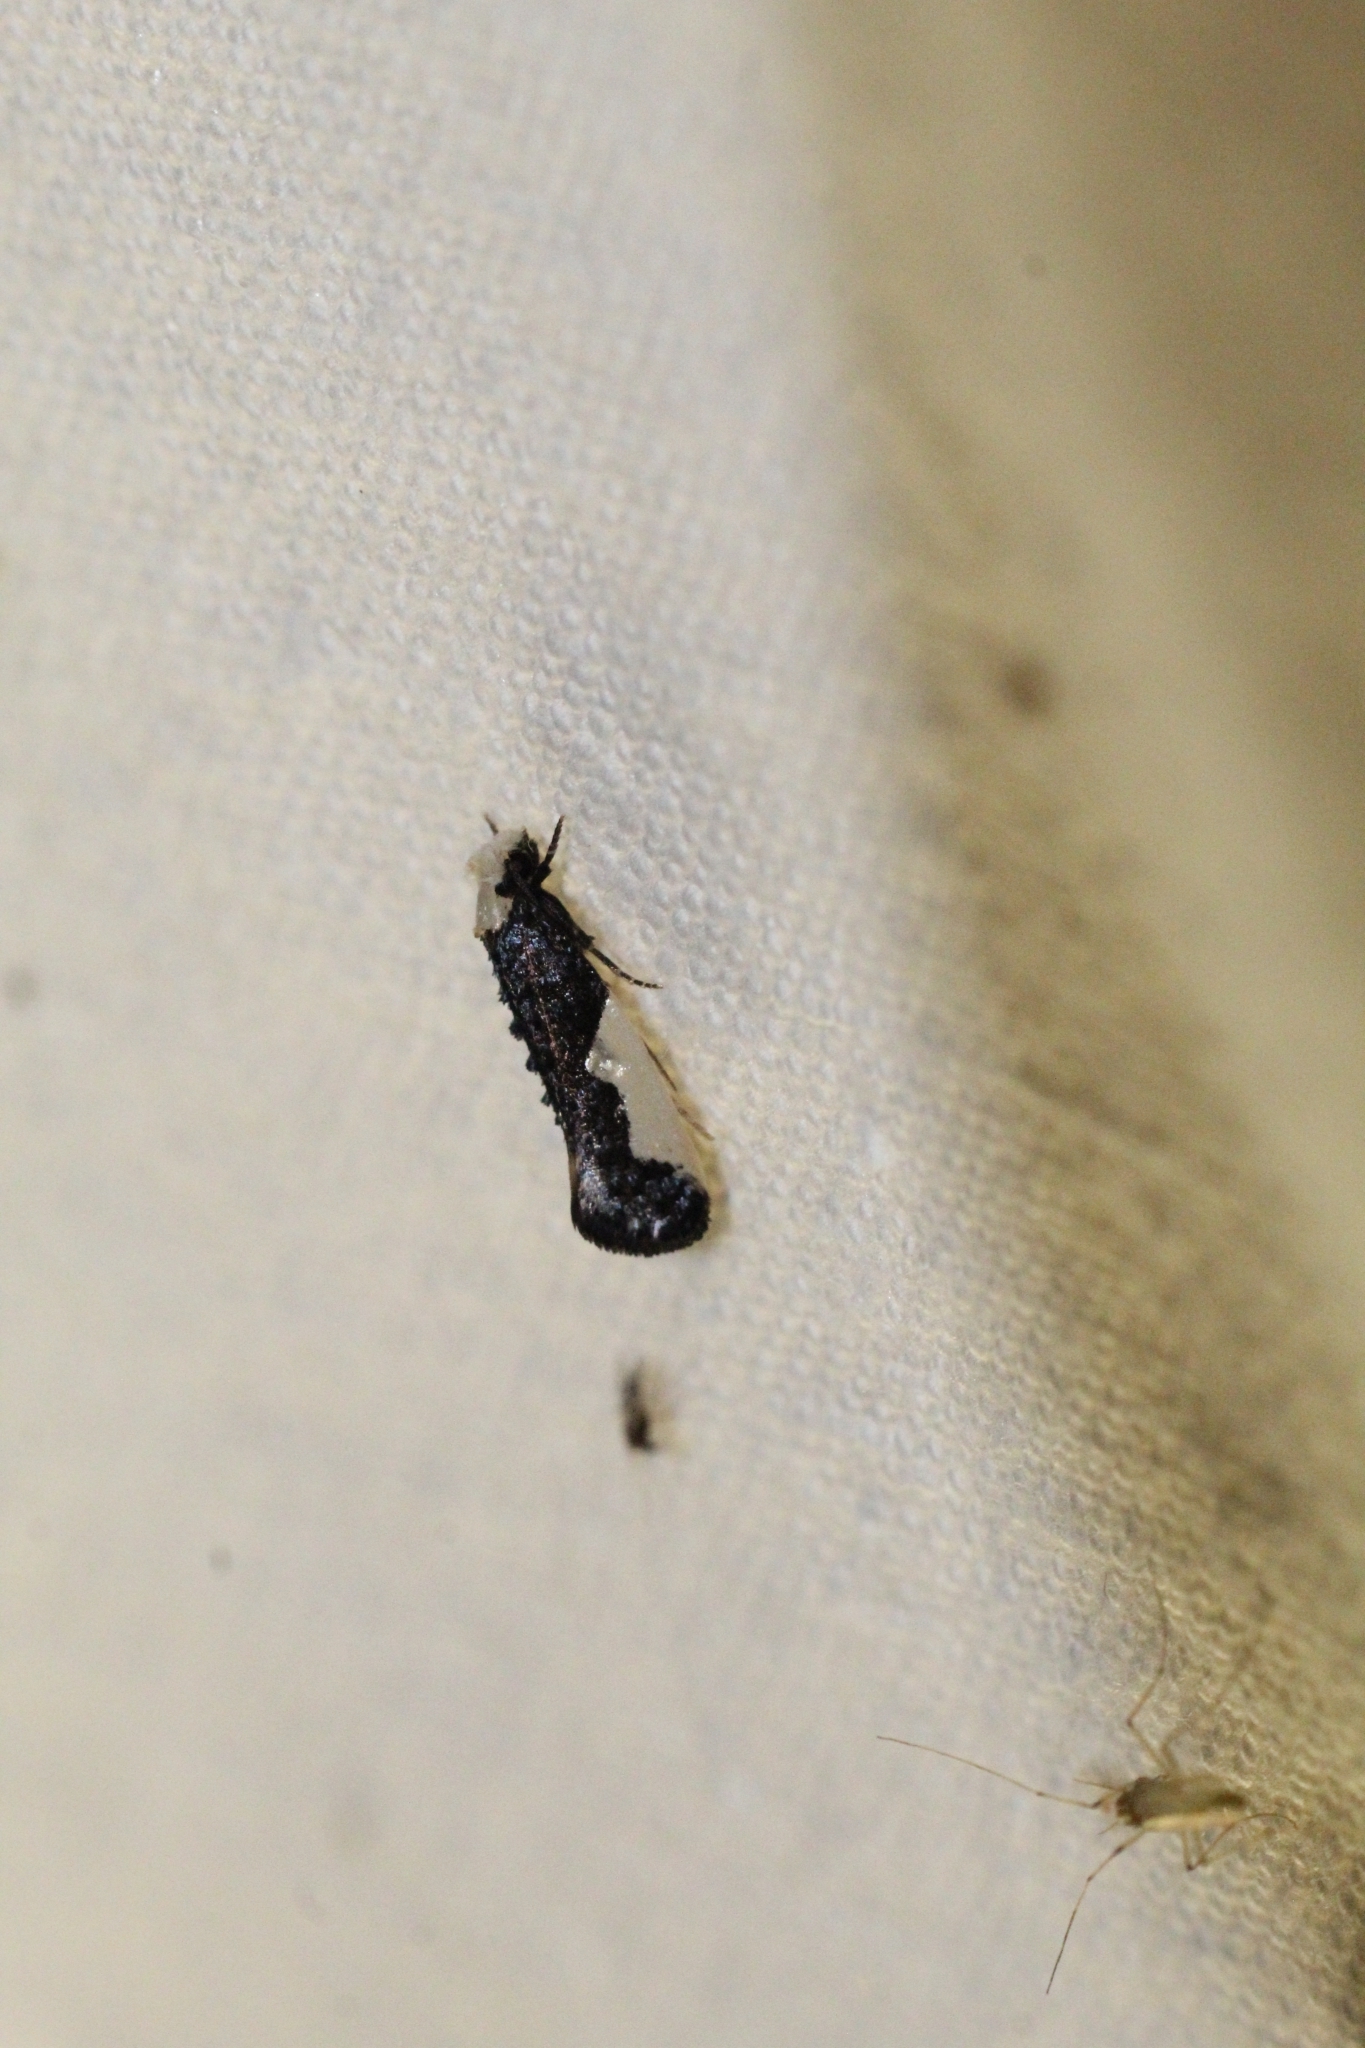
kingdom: Animalia
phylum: Arthropoda
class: Insecta
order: Lepidoptera
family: Tineidae
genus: Monopis
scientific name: Monopis monachella
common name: Moth
